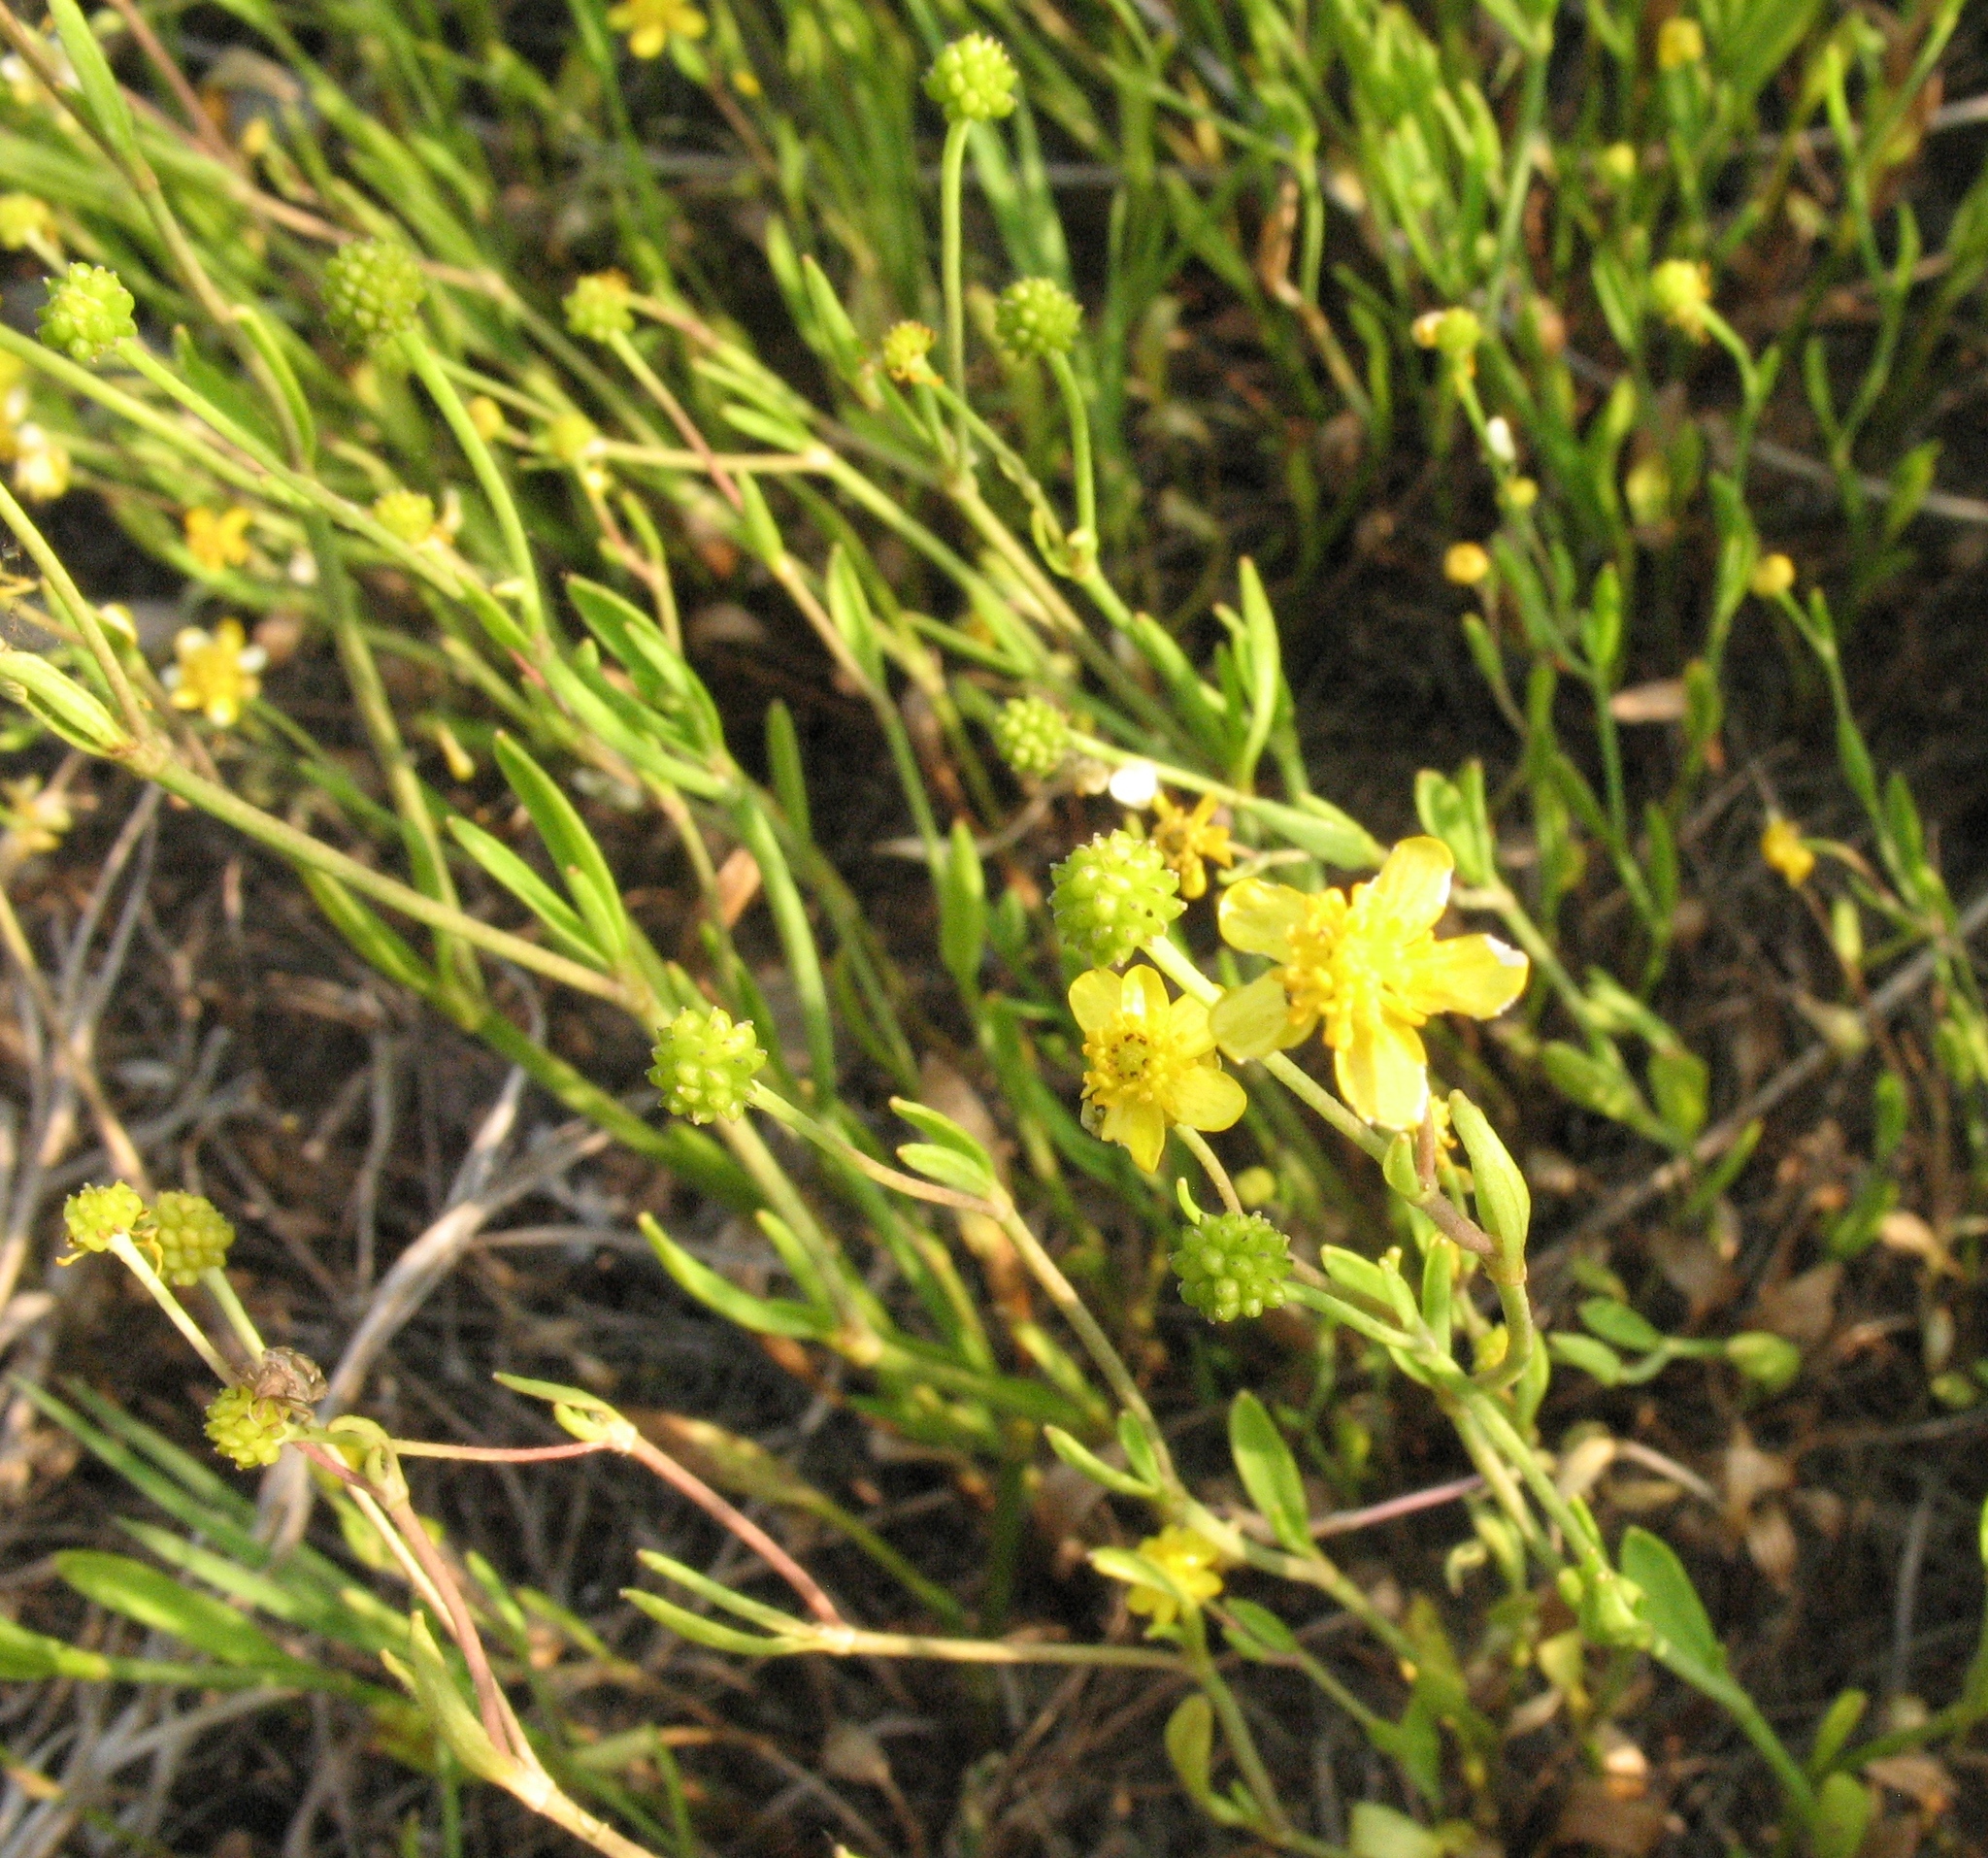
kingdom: Plantae
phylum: Tracheophyta
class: Magnoliopsida
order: Ranunculales
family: Ranunculaceae
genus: Ranunculus
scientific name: Ranunculus flammula
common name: Lesser spearwort
